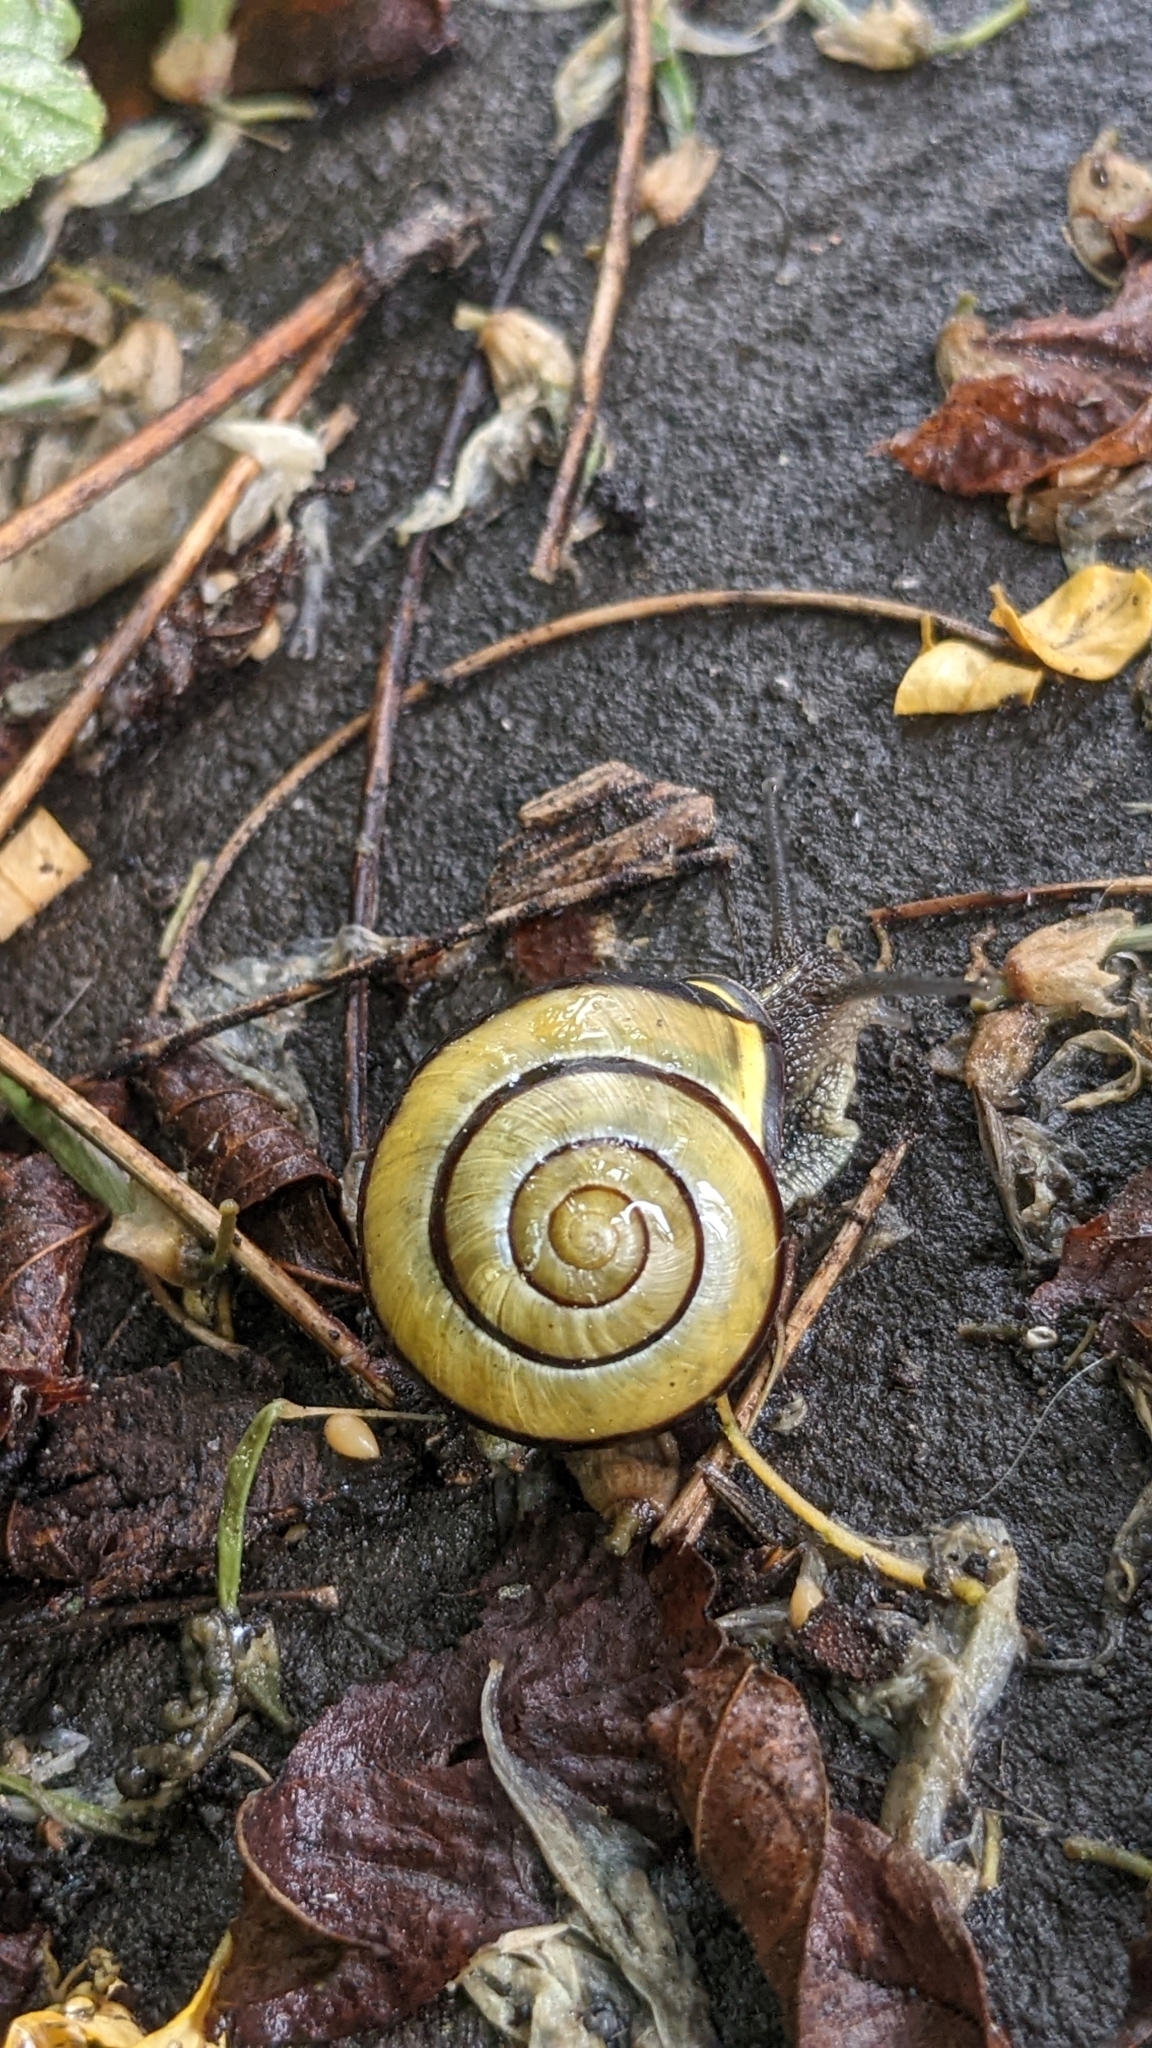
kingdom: Animalia
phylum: Mollusca
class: Gastropoda
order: Stylommatophora
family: Helicidae
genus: Cepaea
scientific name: Cepaea nemoralis
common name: Grovesnail
